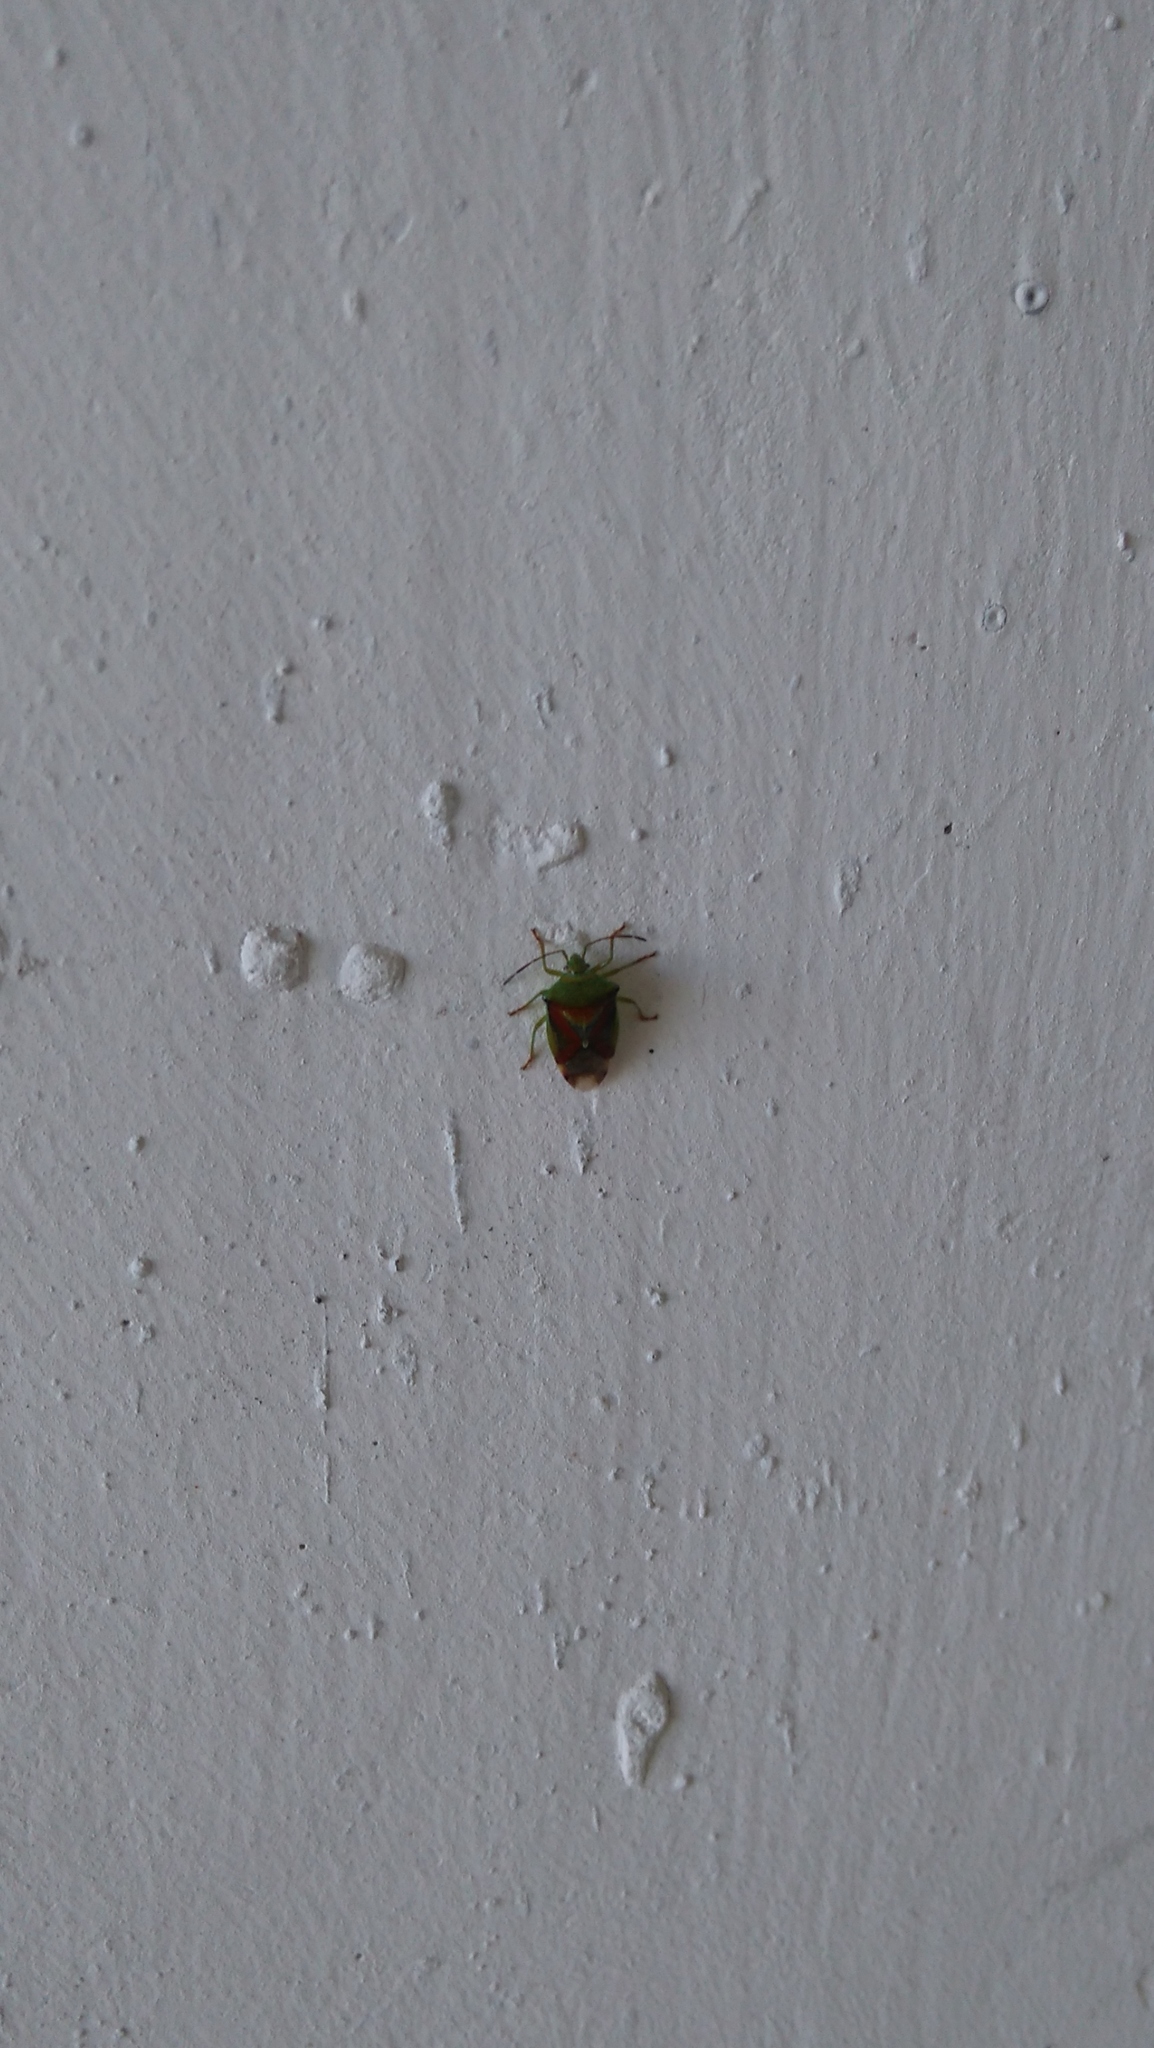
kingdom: Animalia
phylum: Arthropoda
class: Insecta
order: Hemiptera
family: Acanthosomatidae
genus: Elasmostethus
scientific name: Elasmostethus
